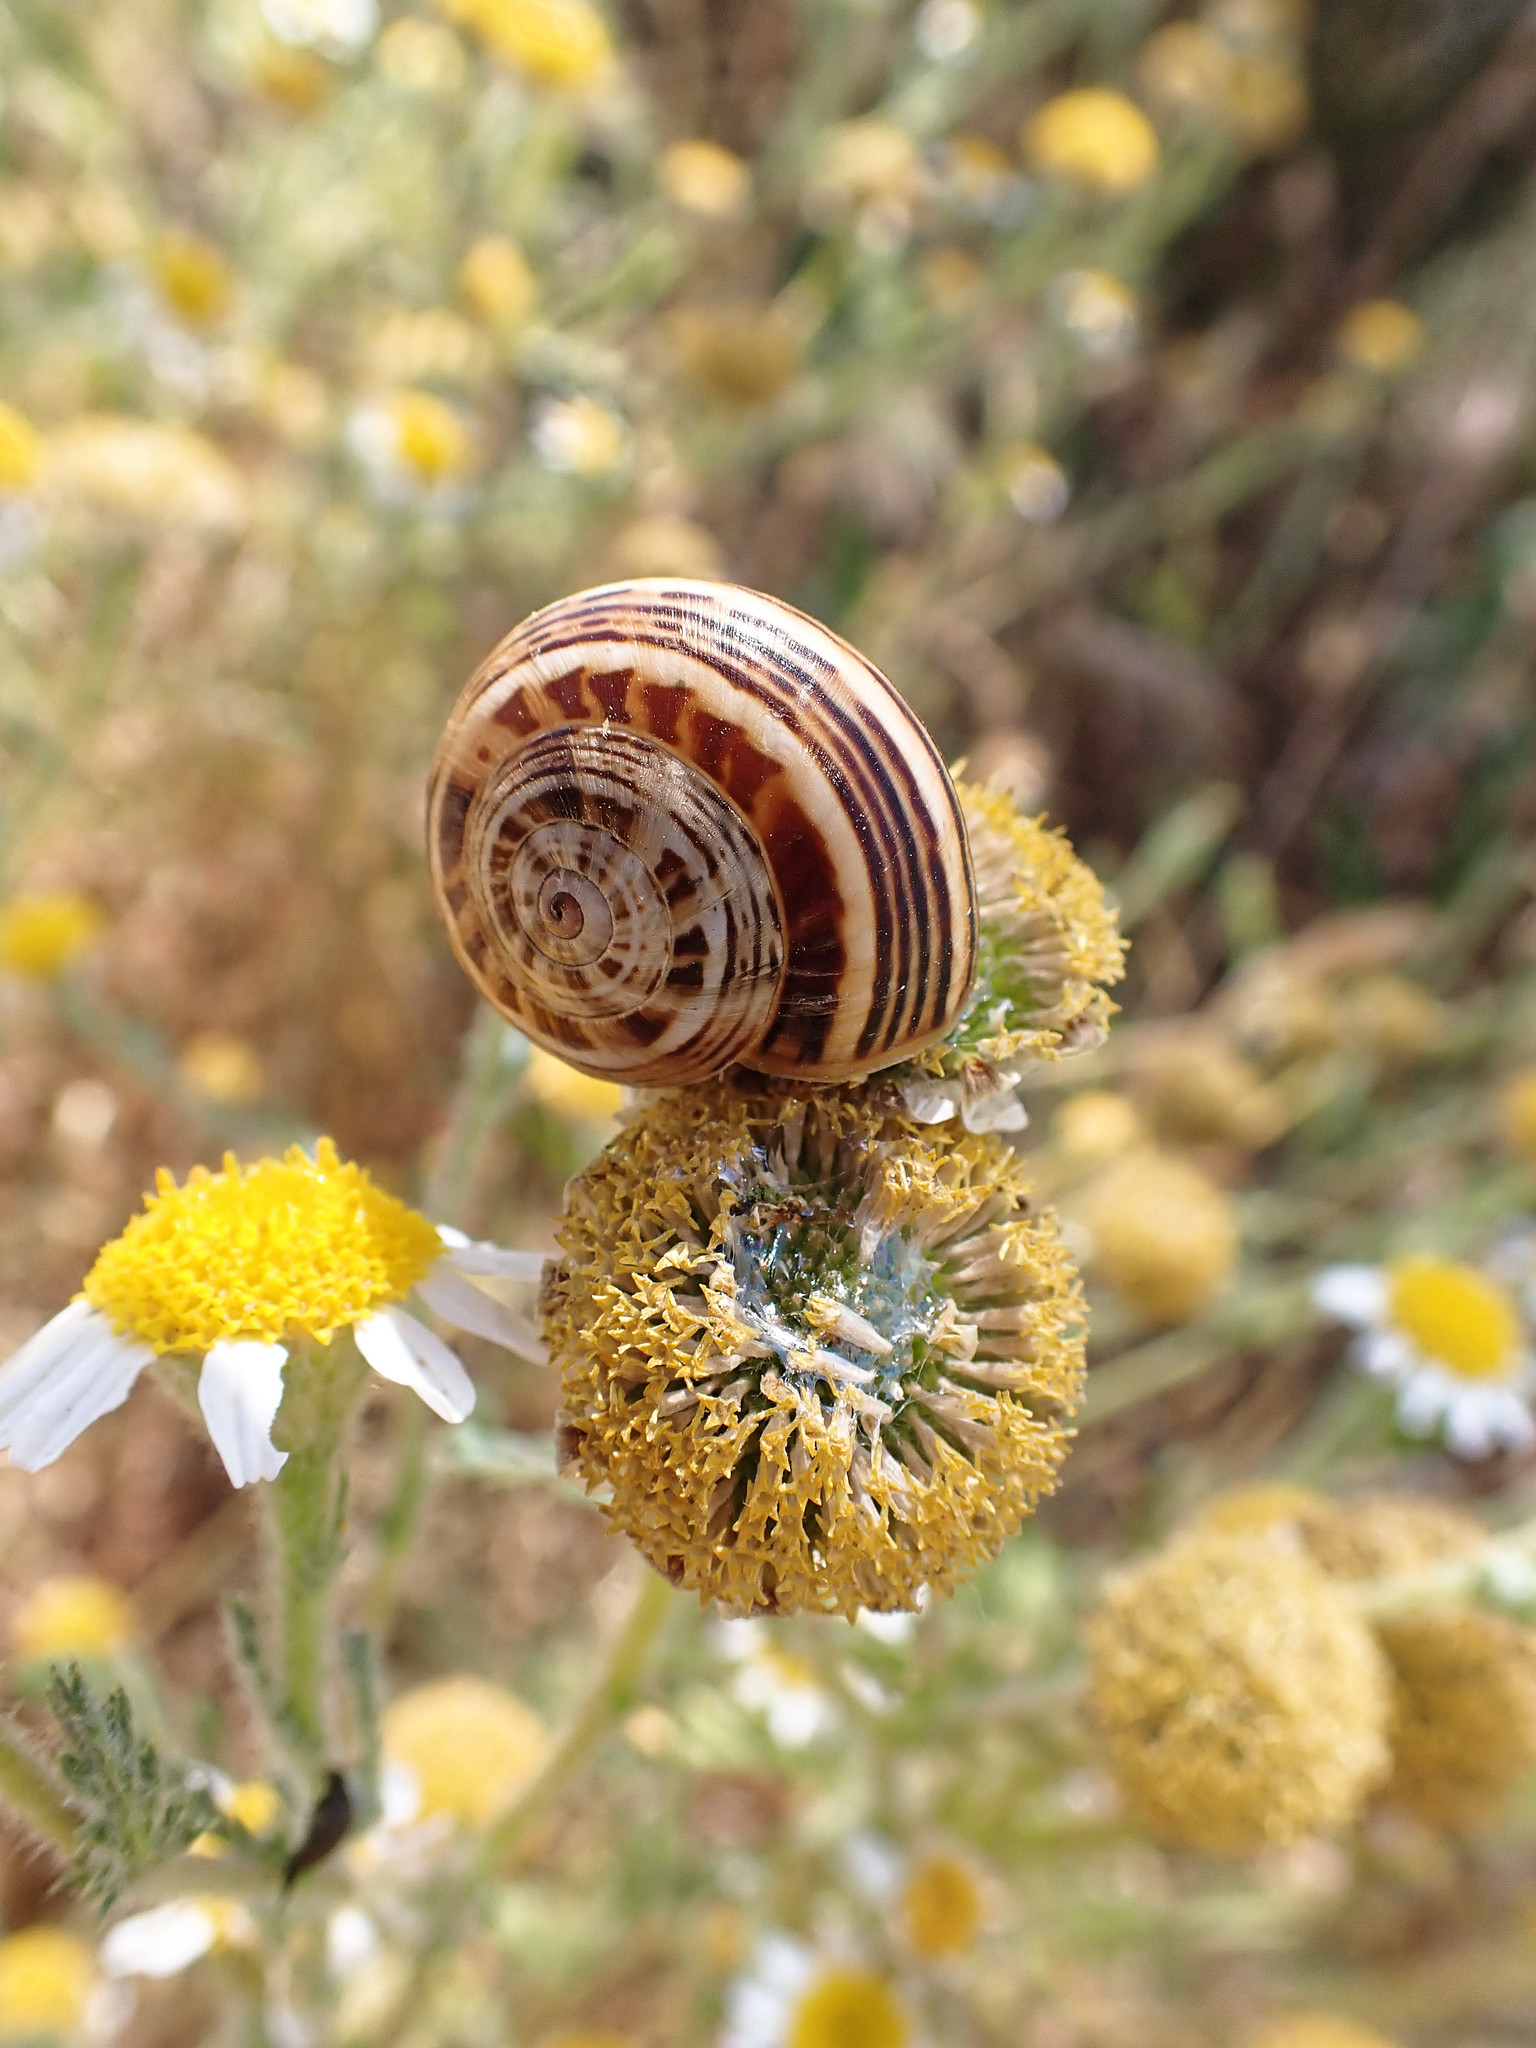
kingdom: Animalia
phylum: Mollusca
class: Gastropoda
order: Stylommatophora
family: Helicidae
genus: Theba
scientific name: Theba pisana
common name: White snail
